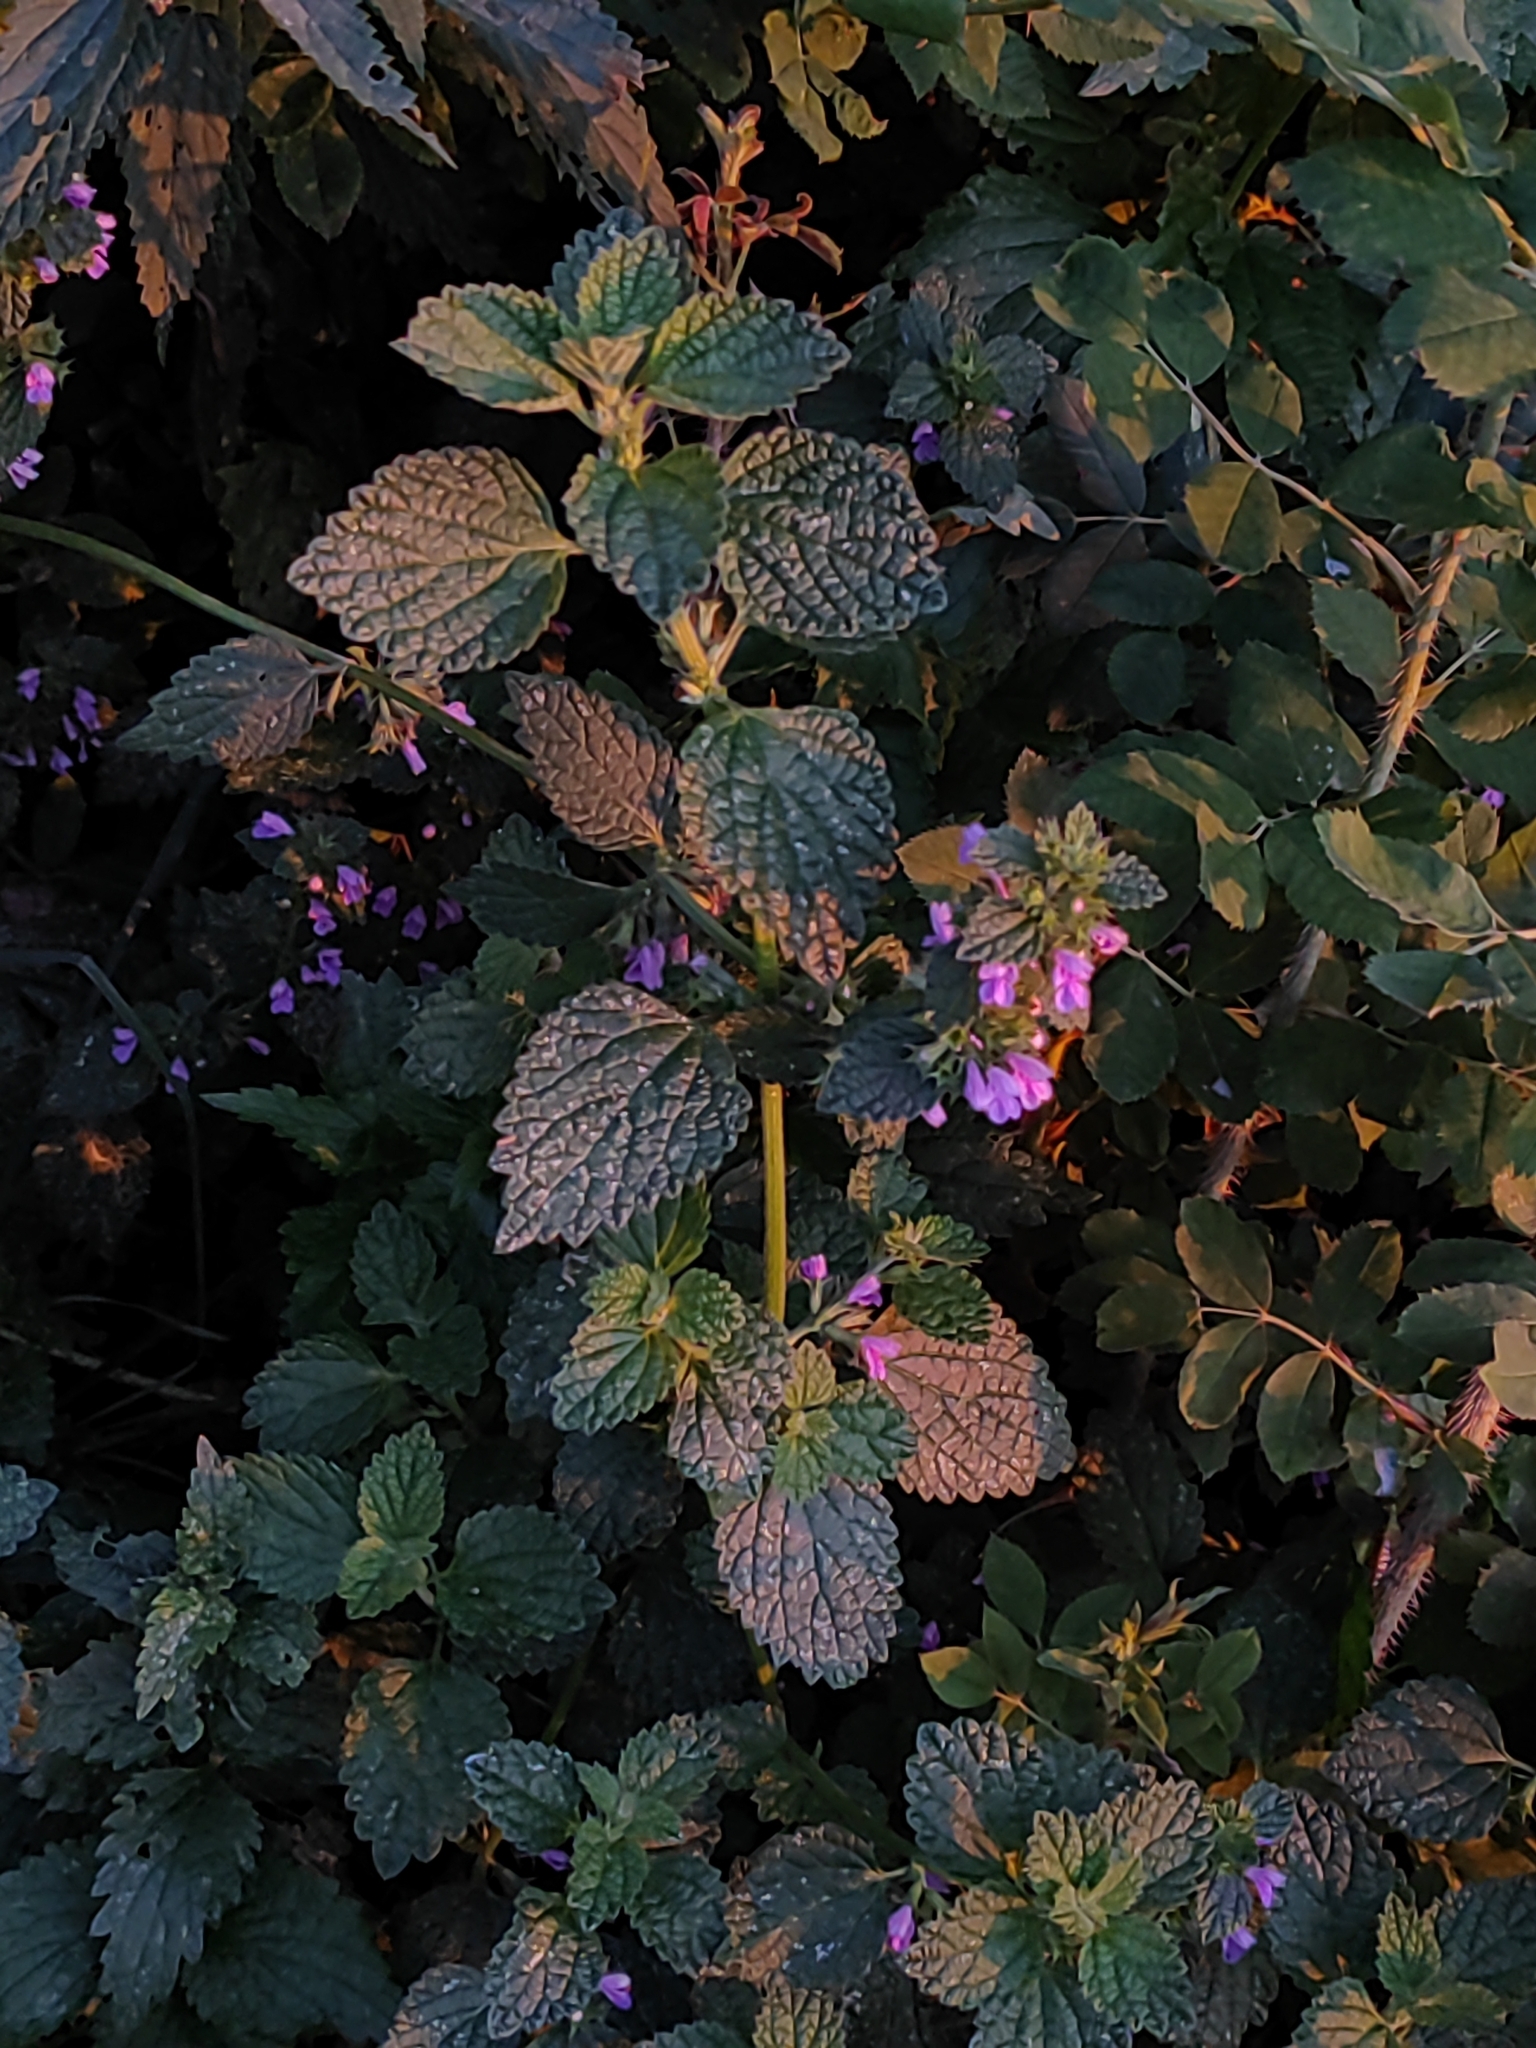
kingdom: Plantae
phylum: Tracheophyta
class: Magnoliopsida
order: Lamiales
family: Lamiaceae
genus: Ballota
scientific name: Ballota nigra
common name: Black horehound
